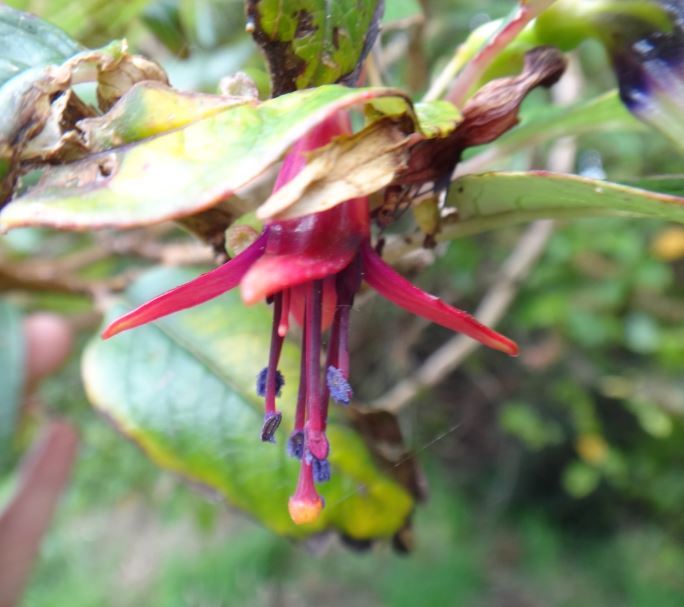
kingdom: Plantae
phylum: Tracheophyta
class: Magnoliopsida
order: Myrtales
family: Onagraceae
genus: Fuchsia
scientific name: Fuchsia excorticata
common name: Tree fuchsia
